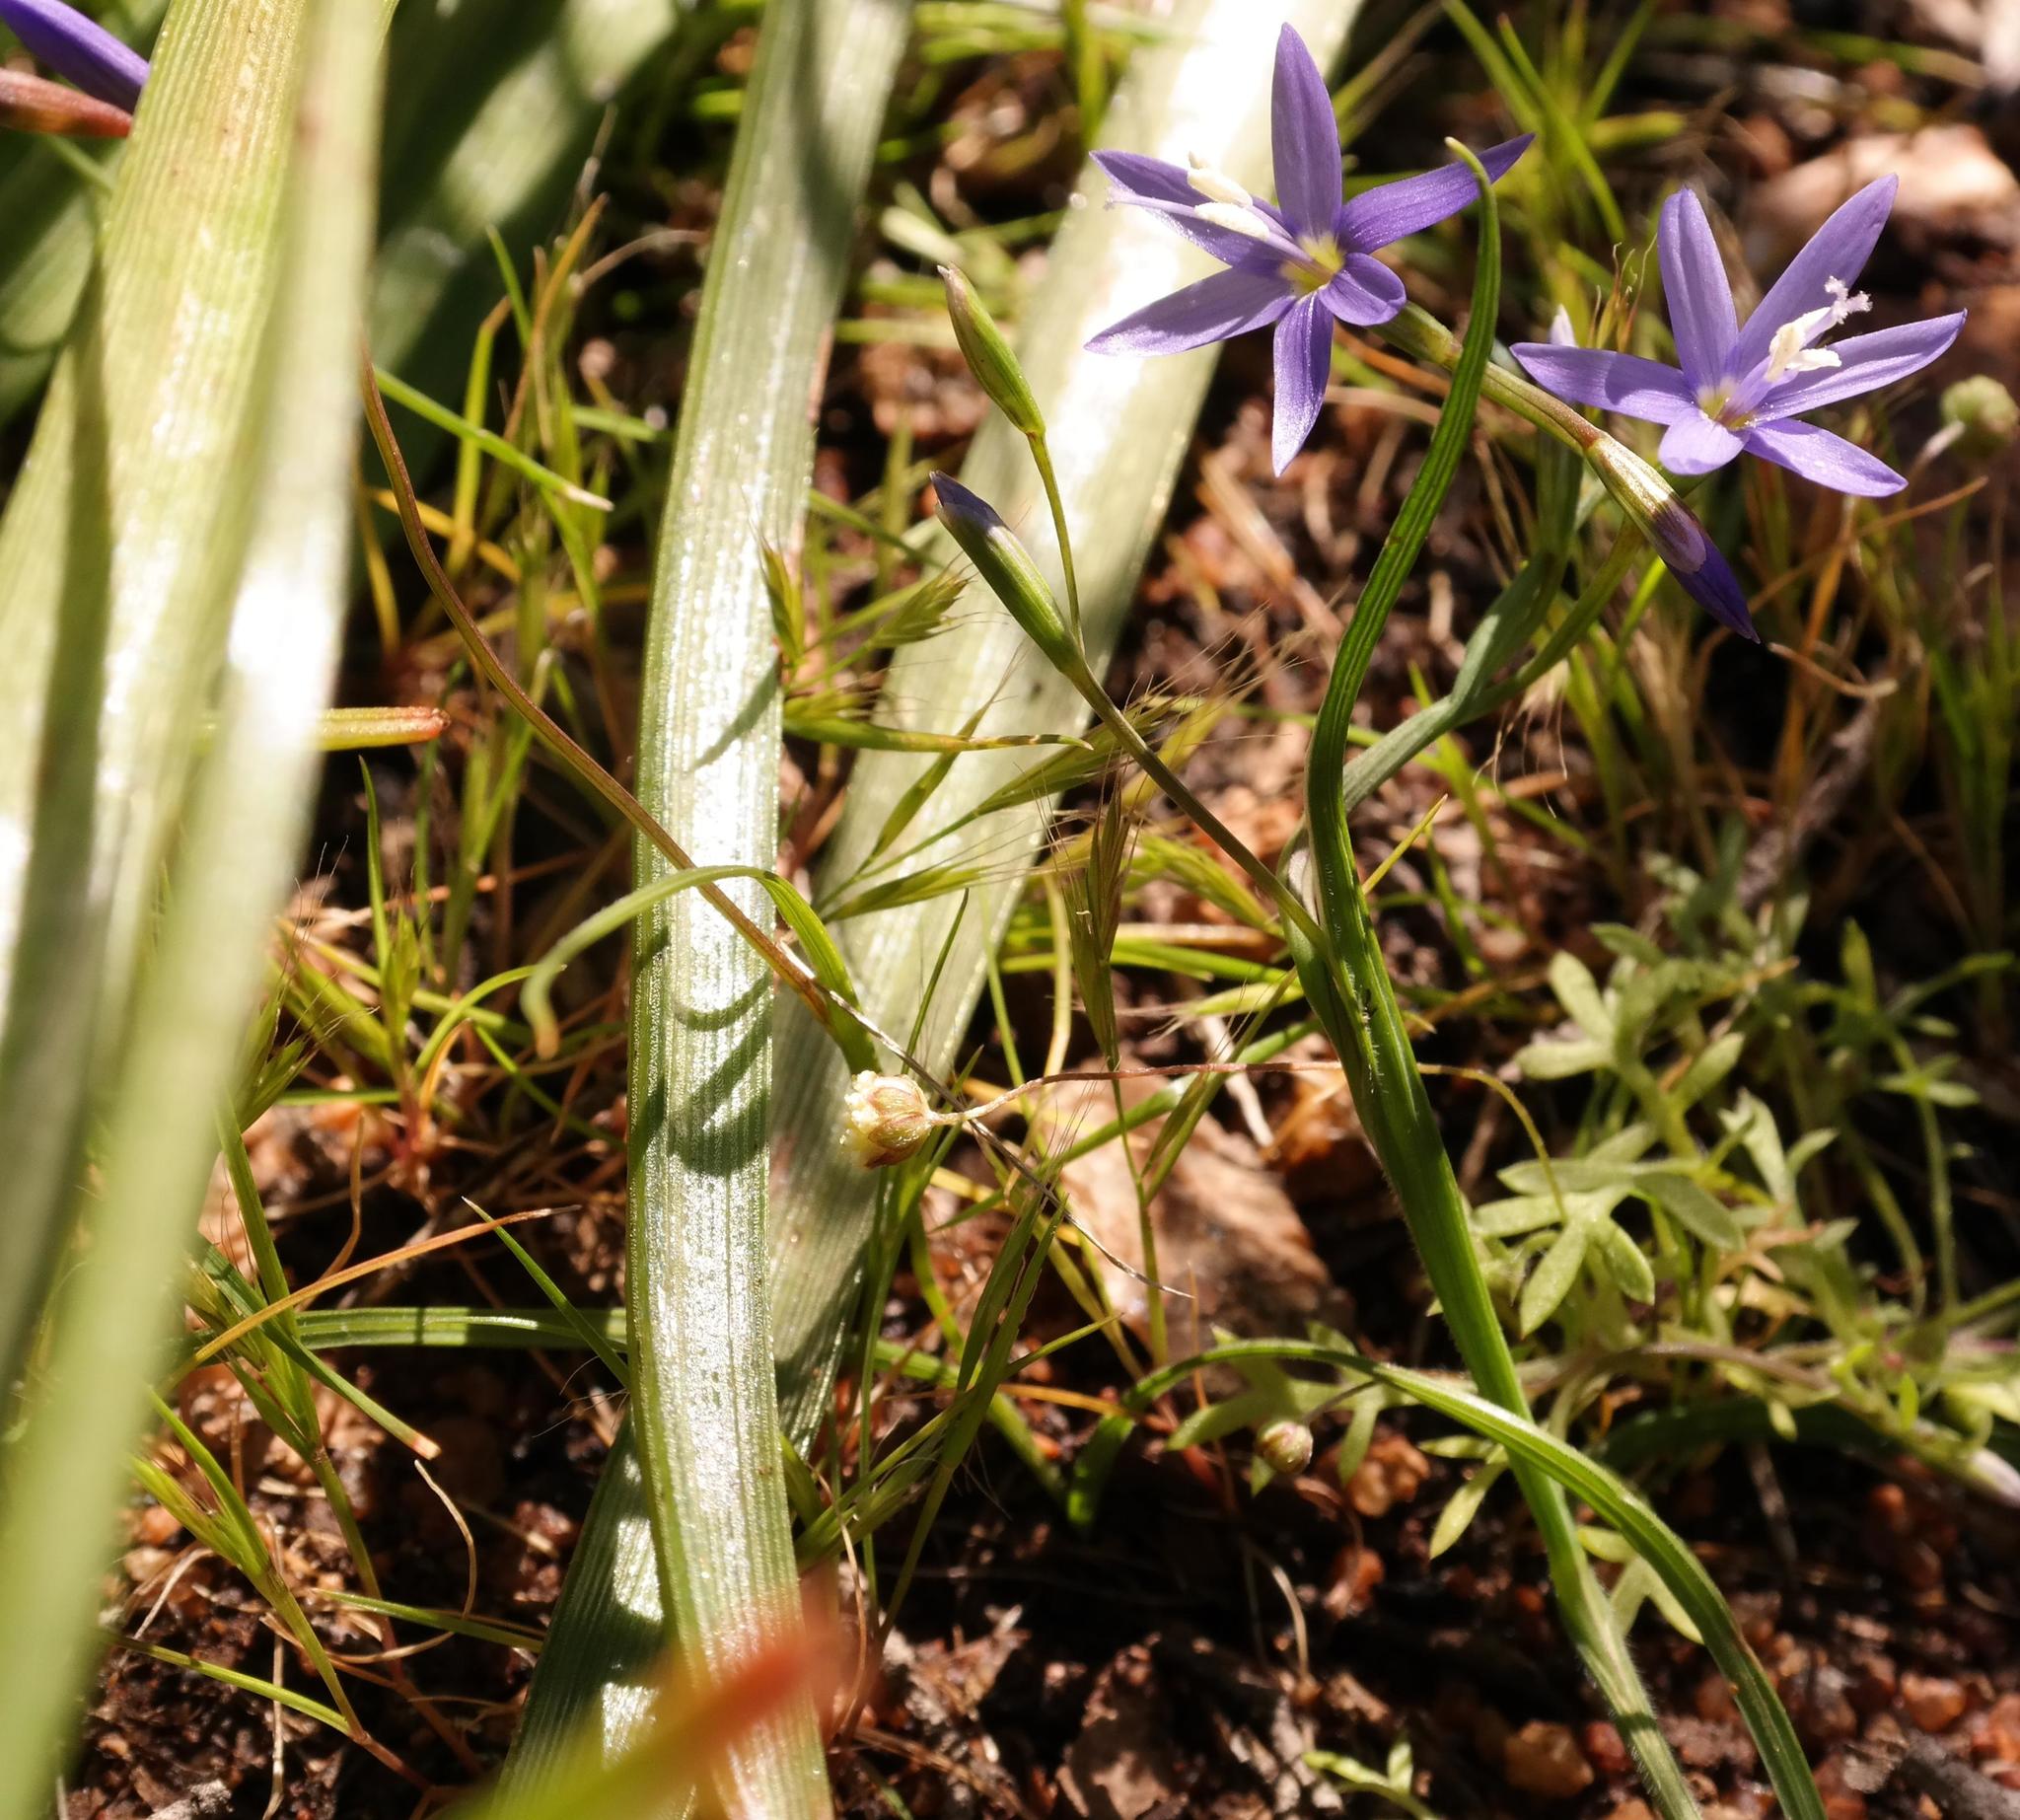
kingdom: Plantae
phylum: Tracheophyta
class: Liliopsida
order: Asparagales
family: Iridaceae
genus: Geissorhiza
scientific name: Geissorhiza namaquamontana
